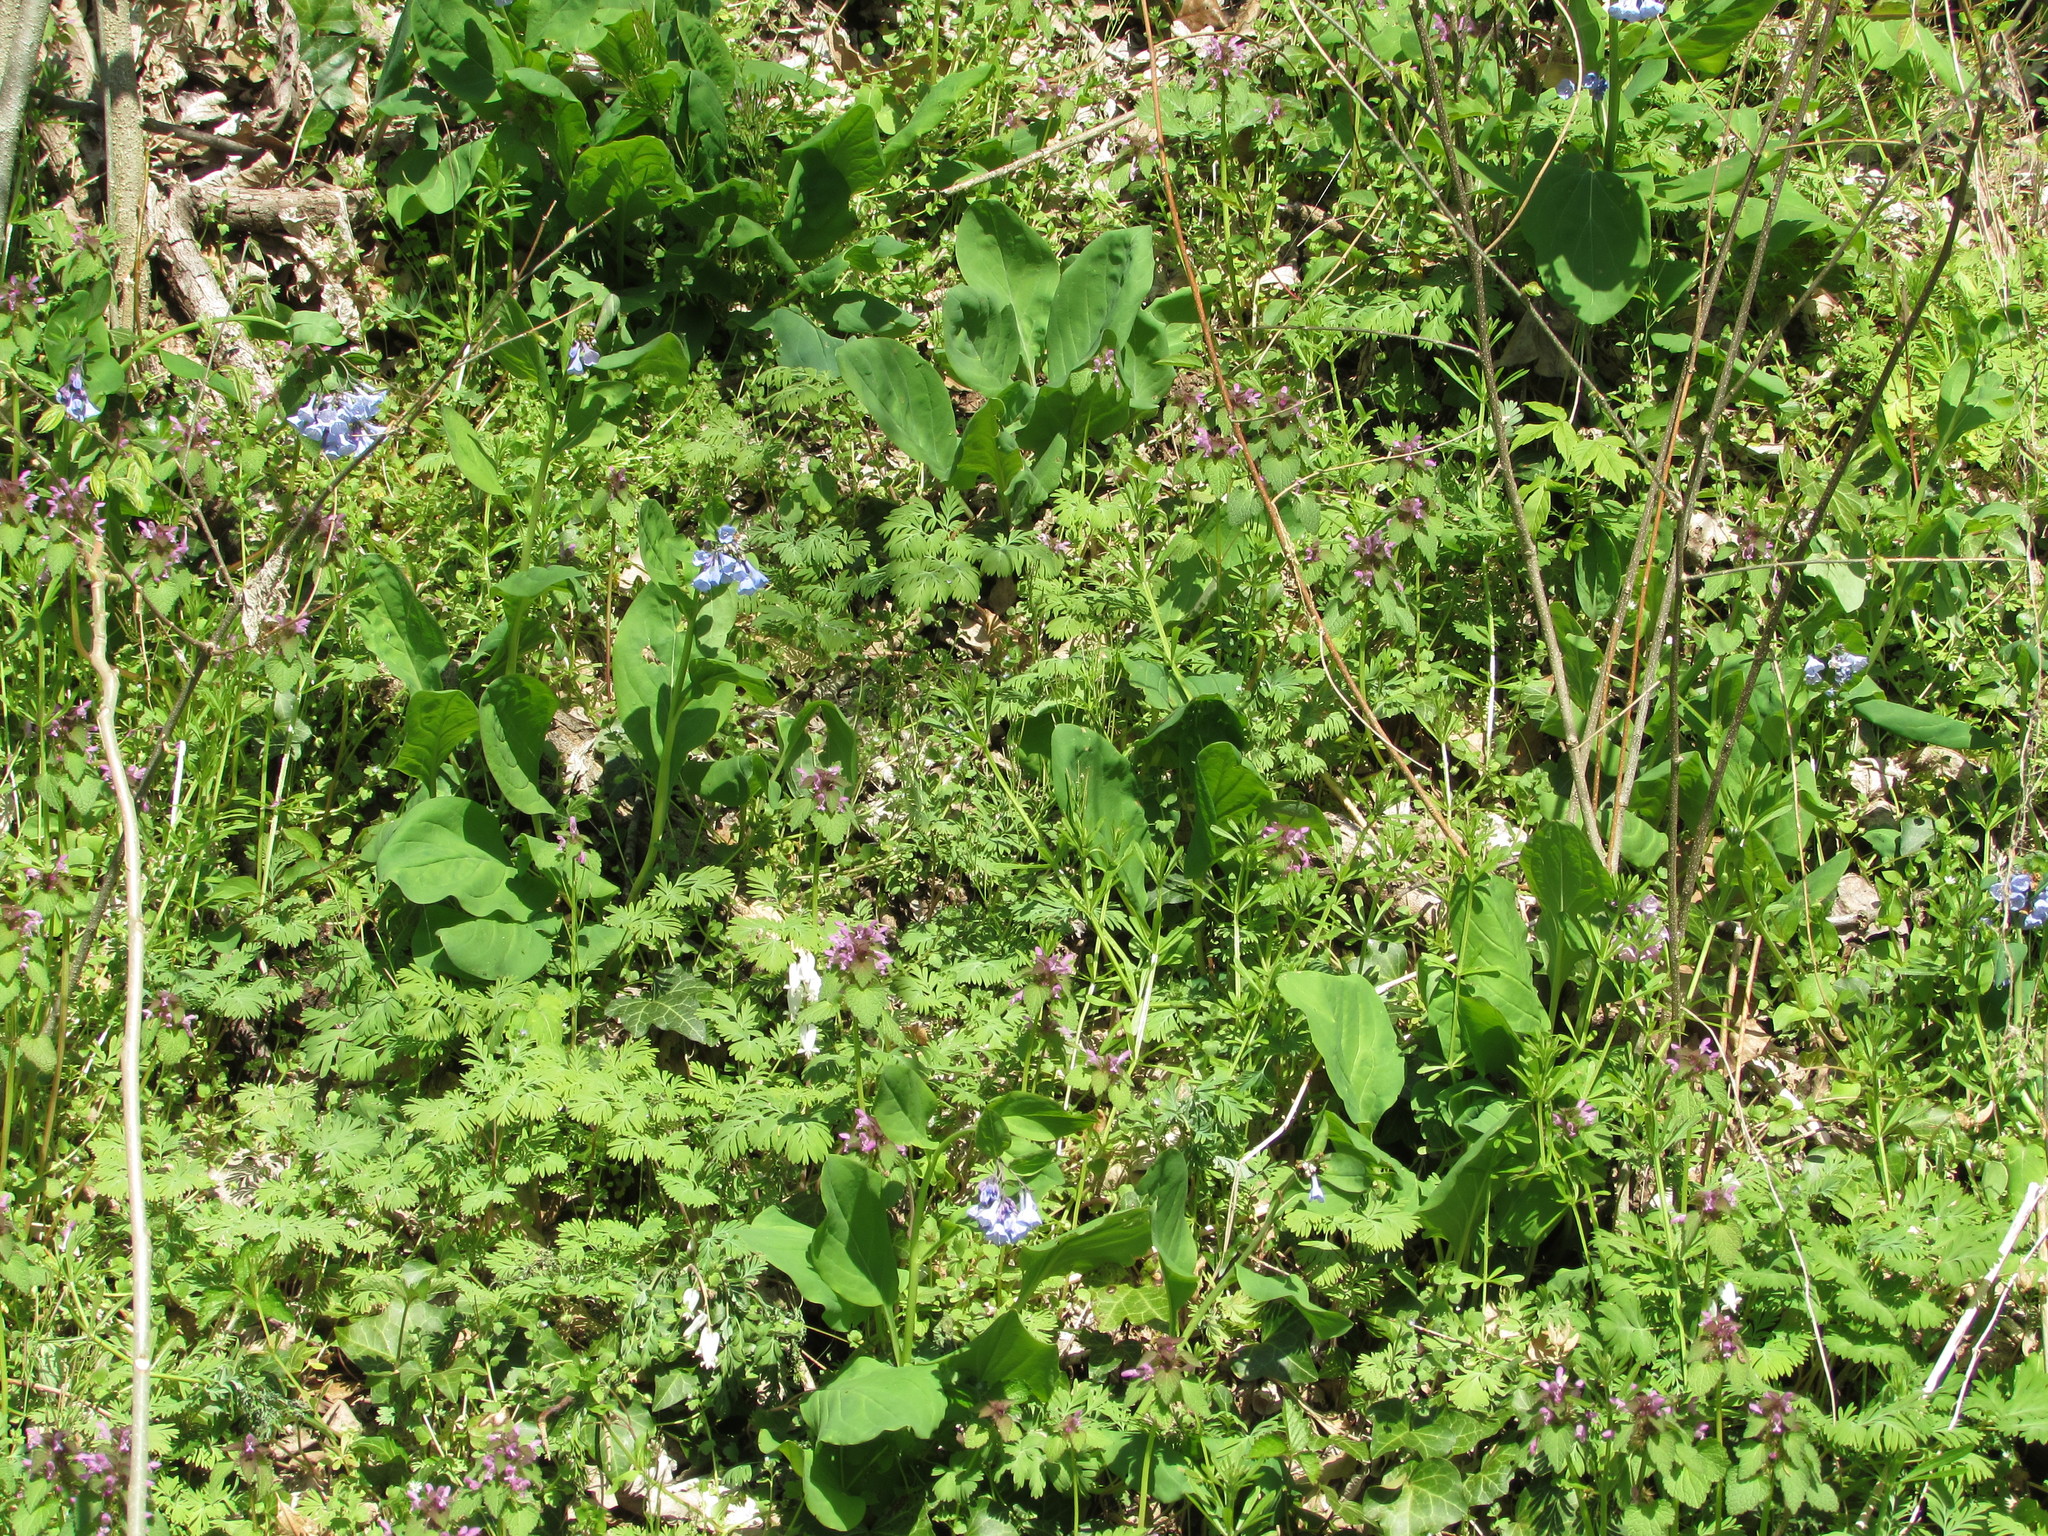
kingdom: Plantae
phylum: Tracheophyta
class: Magnoliopsida
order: Lamiales
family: Lamiaceae
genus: Lamium
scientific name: Lamium purpureum
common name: Red dead-nettle
